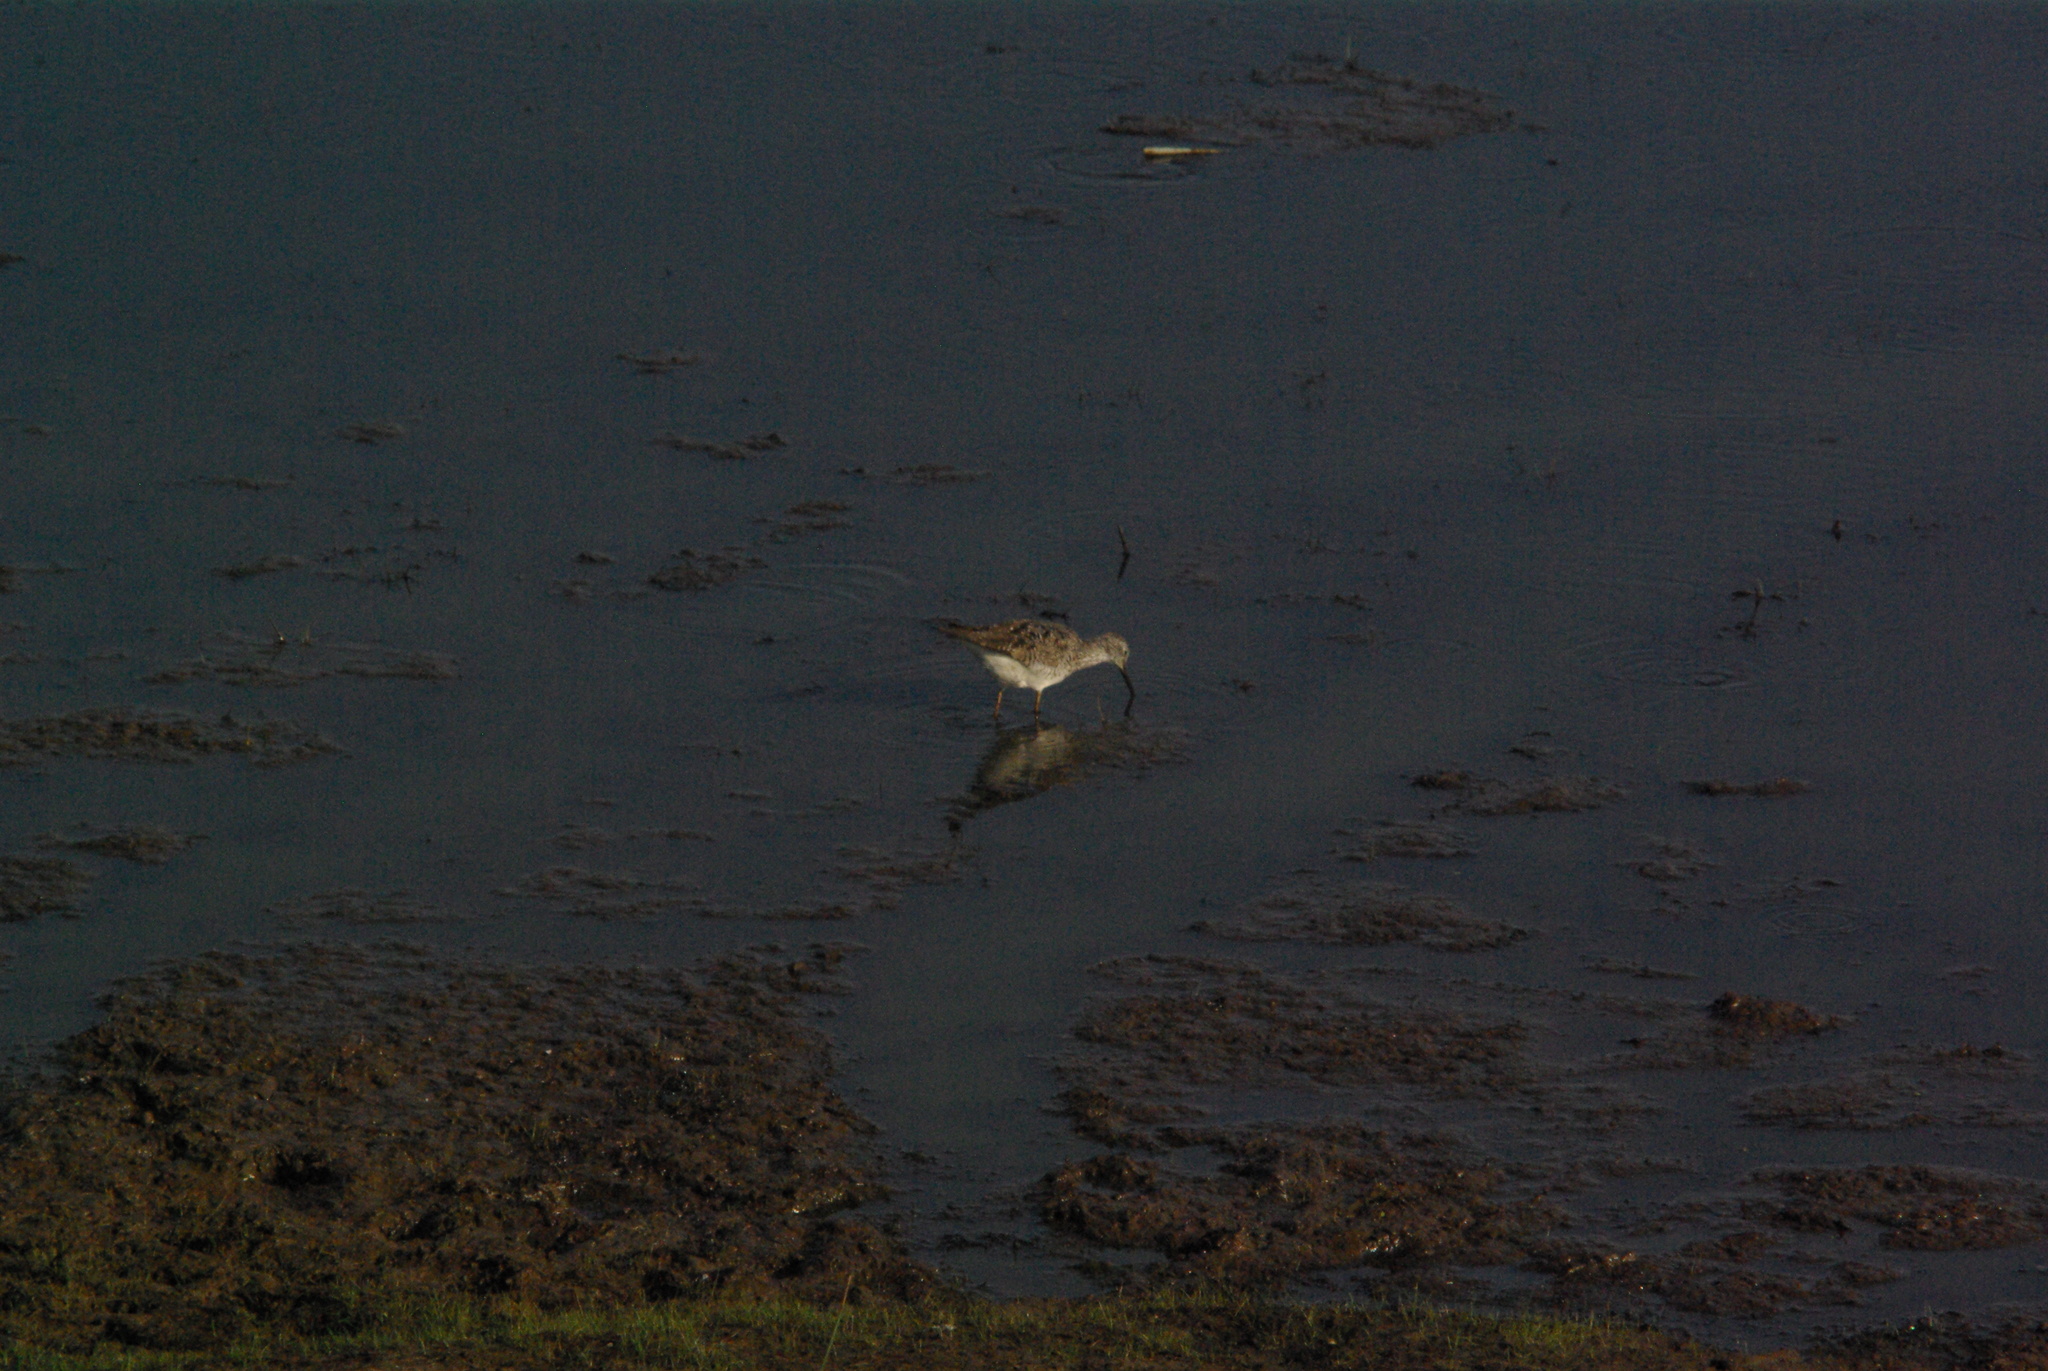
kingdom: Animalia
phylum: Chordata
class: Aves
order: Charadriiformes
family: Scolopacidae
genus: Tringa
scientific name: Tringa flavipes
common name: Lesser yellowlegs
